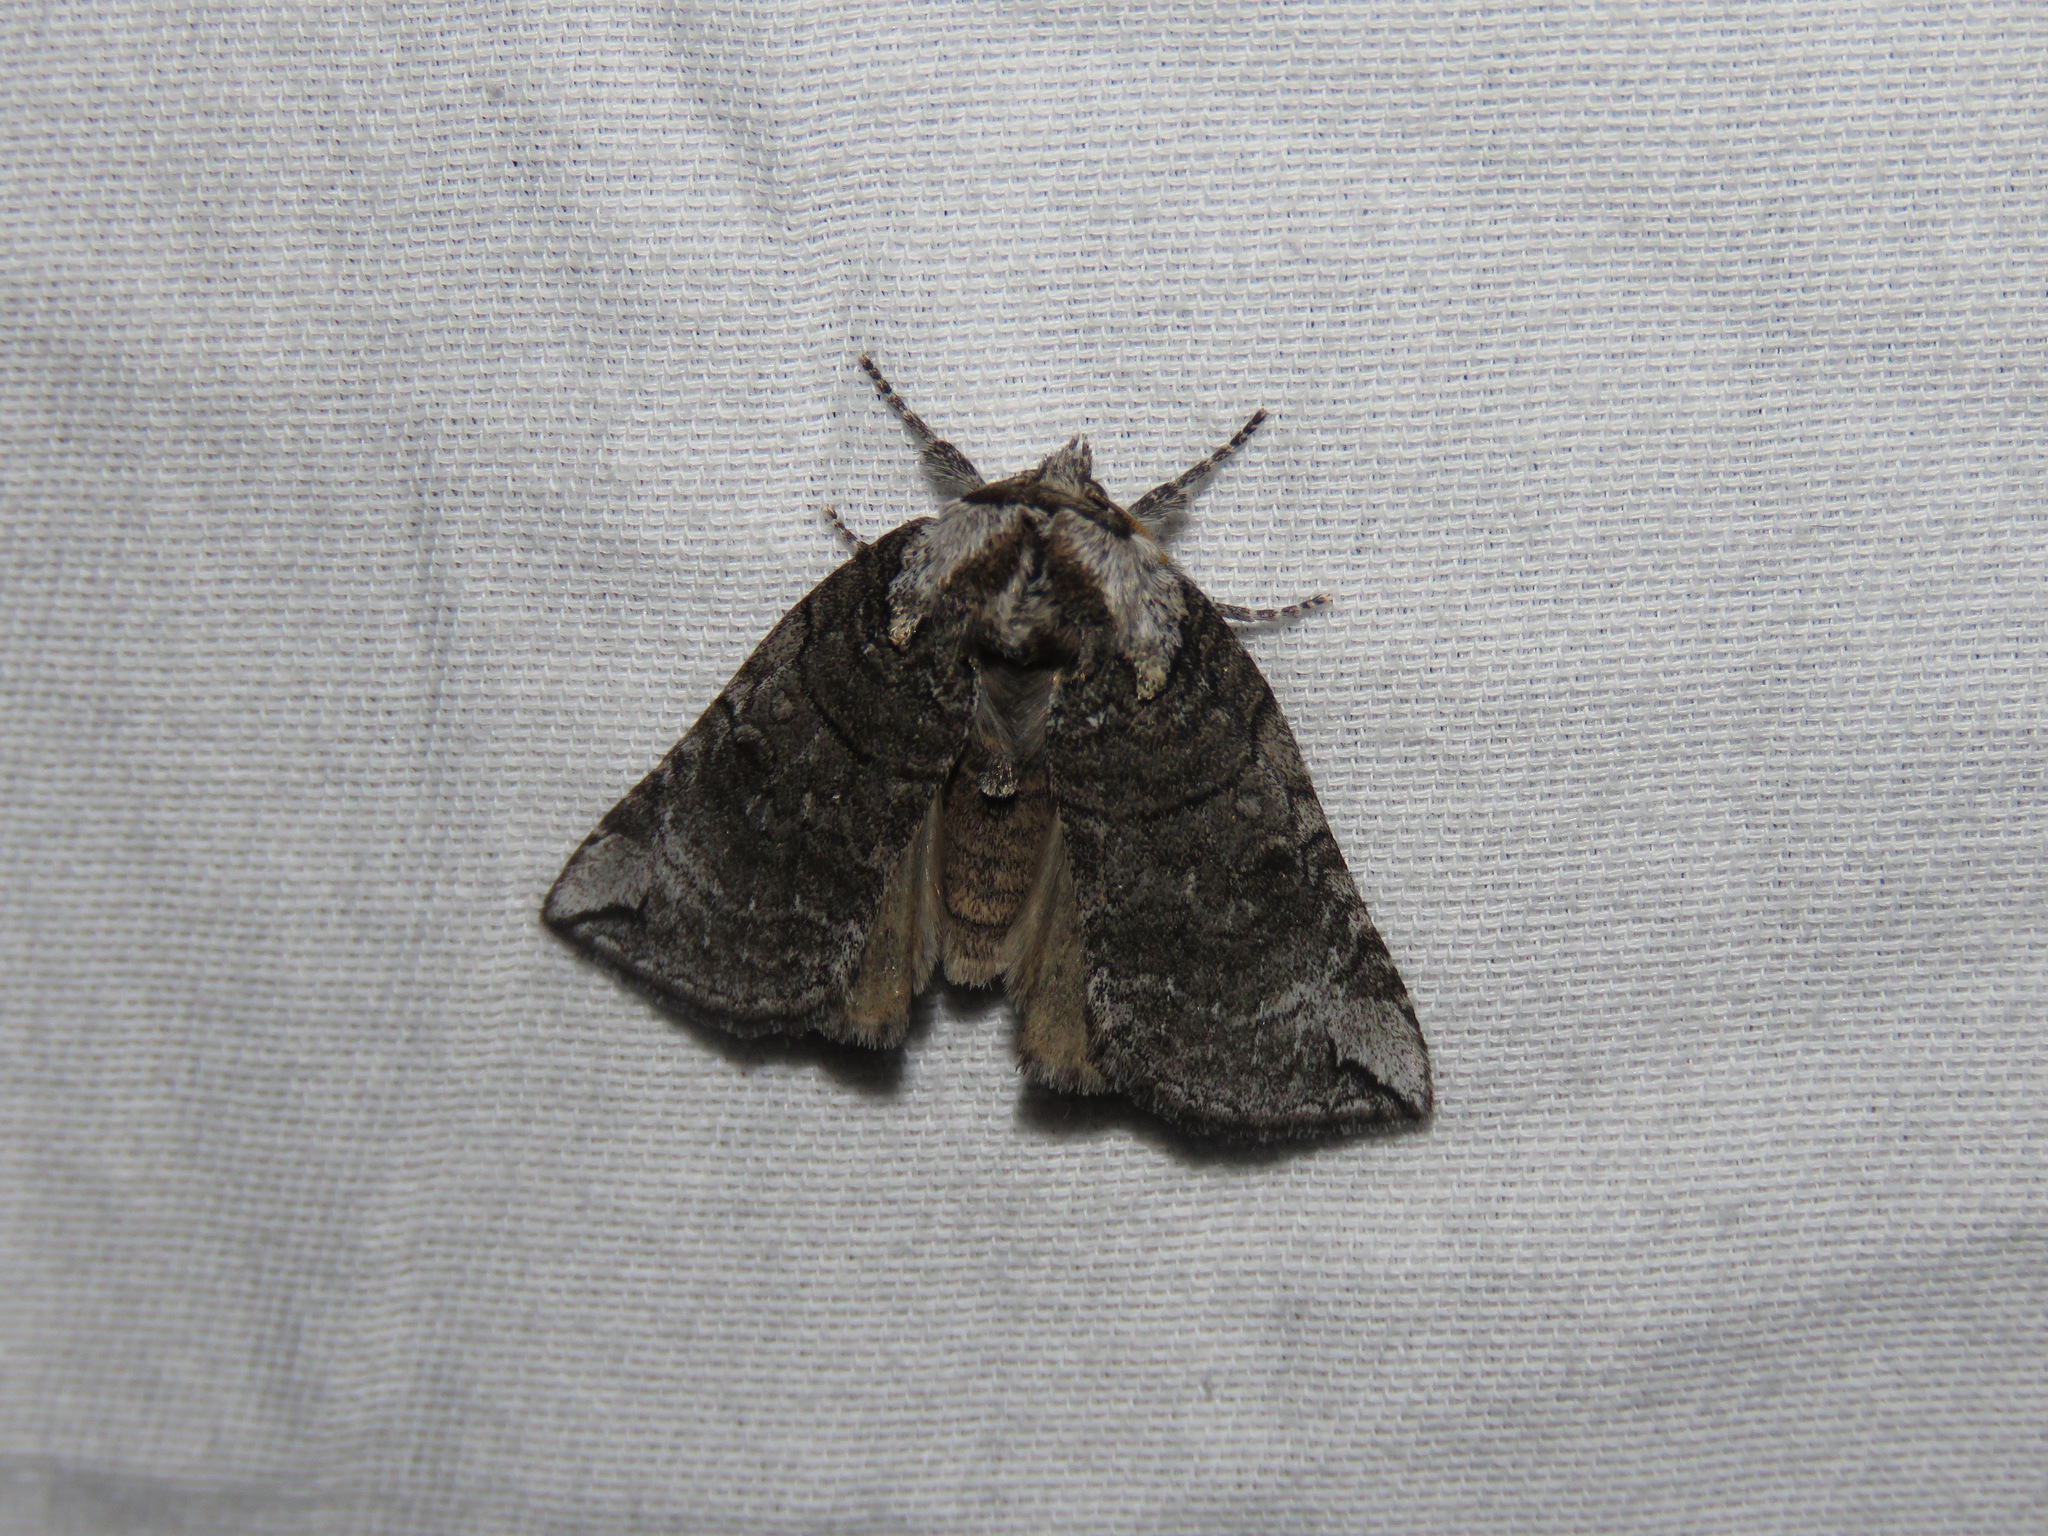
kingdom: Animalia
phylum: Arthropoda
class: Insecta
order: Lepidoptera
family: Drepanidae
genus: Euthyatira
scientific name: Euthyatira semicircularis
